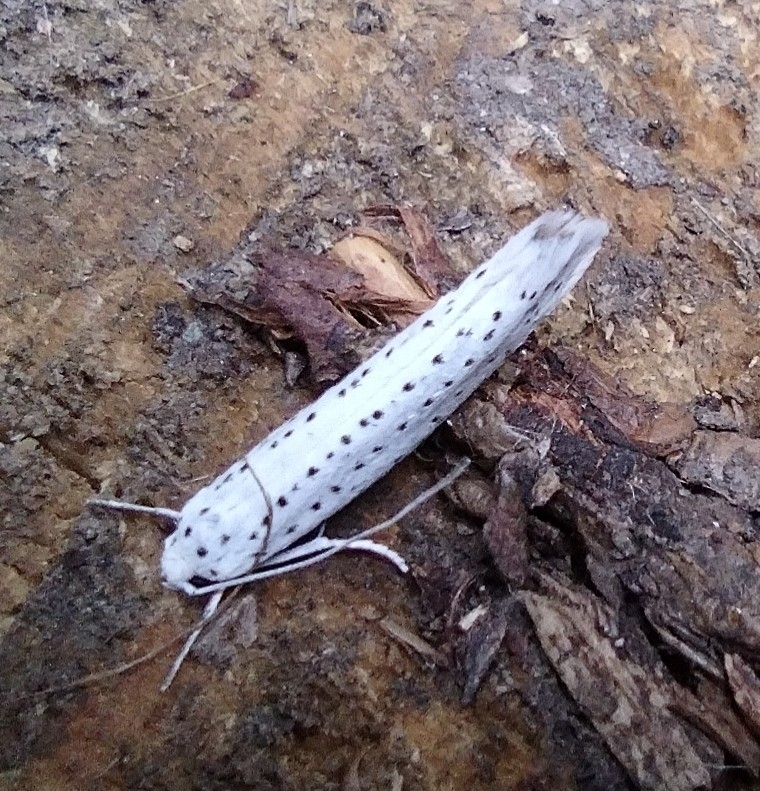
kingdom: Animalia
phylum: Arthropoda
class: Insecta
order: Lepidoptera
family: Yponomeutidae
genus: Yponomeuta
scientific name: Yponomeuta evonymella
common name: Bird-cherry ermine
